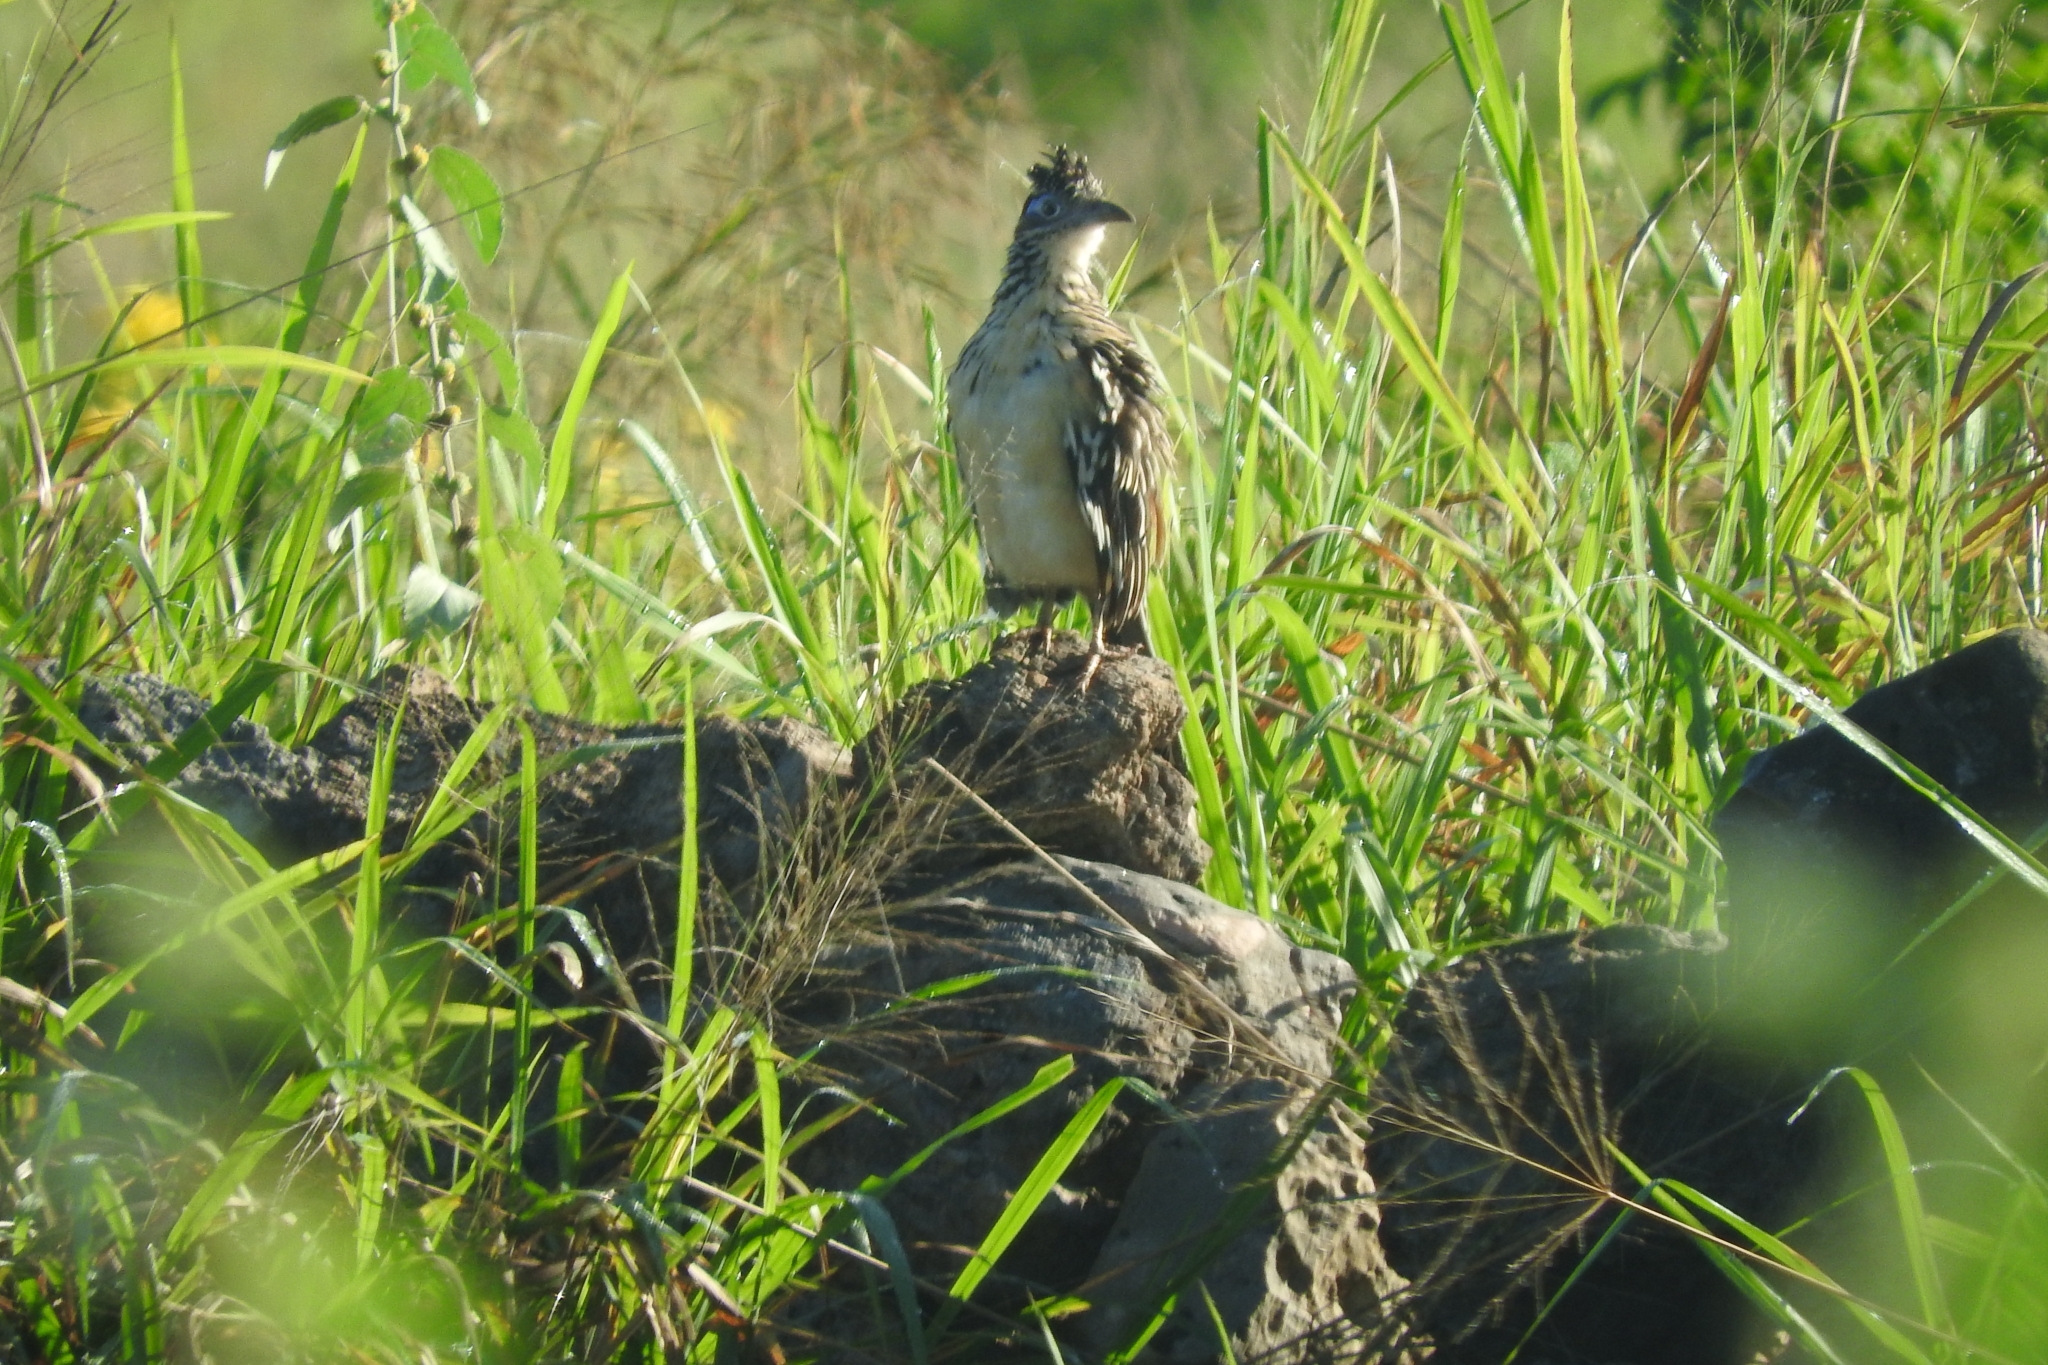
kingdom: Animalia
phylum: Chordata
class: Aves
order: Cuculiformes
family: Cuculidae
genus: Geococcyx
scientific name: Geococcyx velox
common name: Lesser roadrunner
